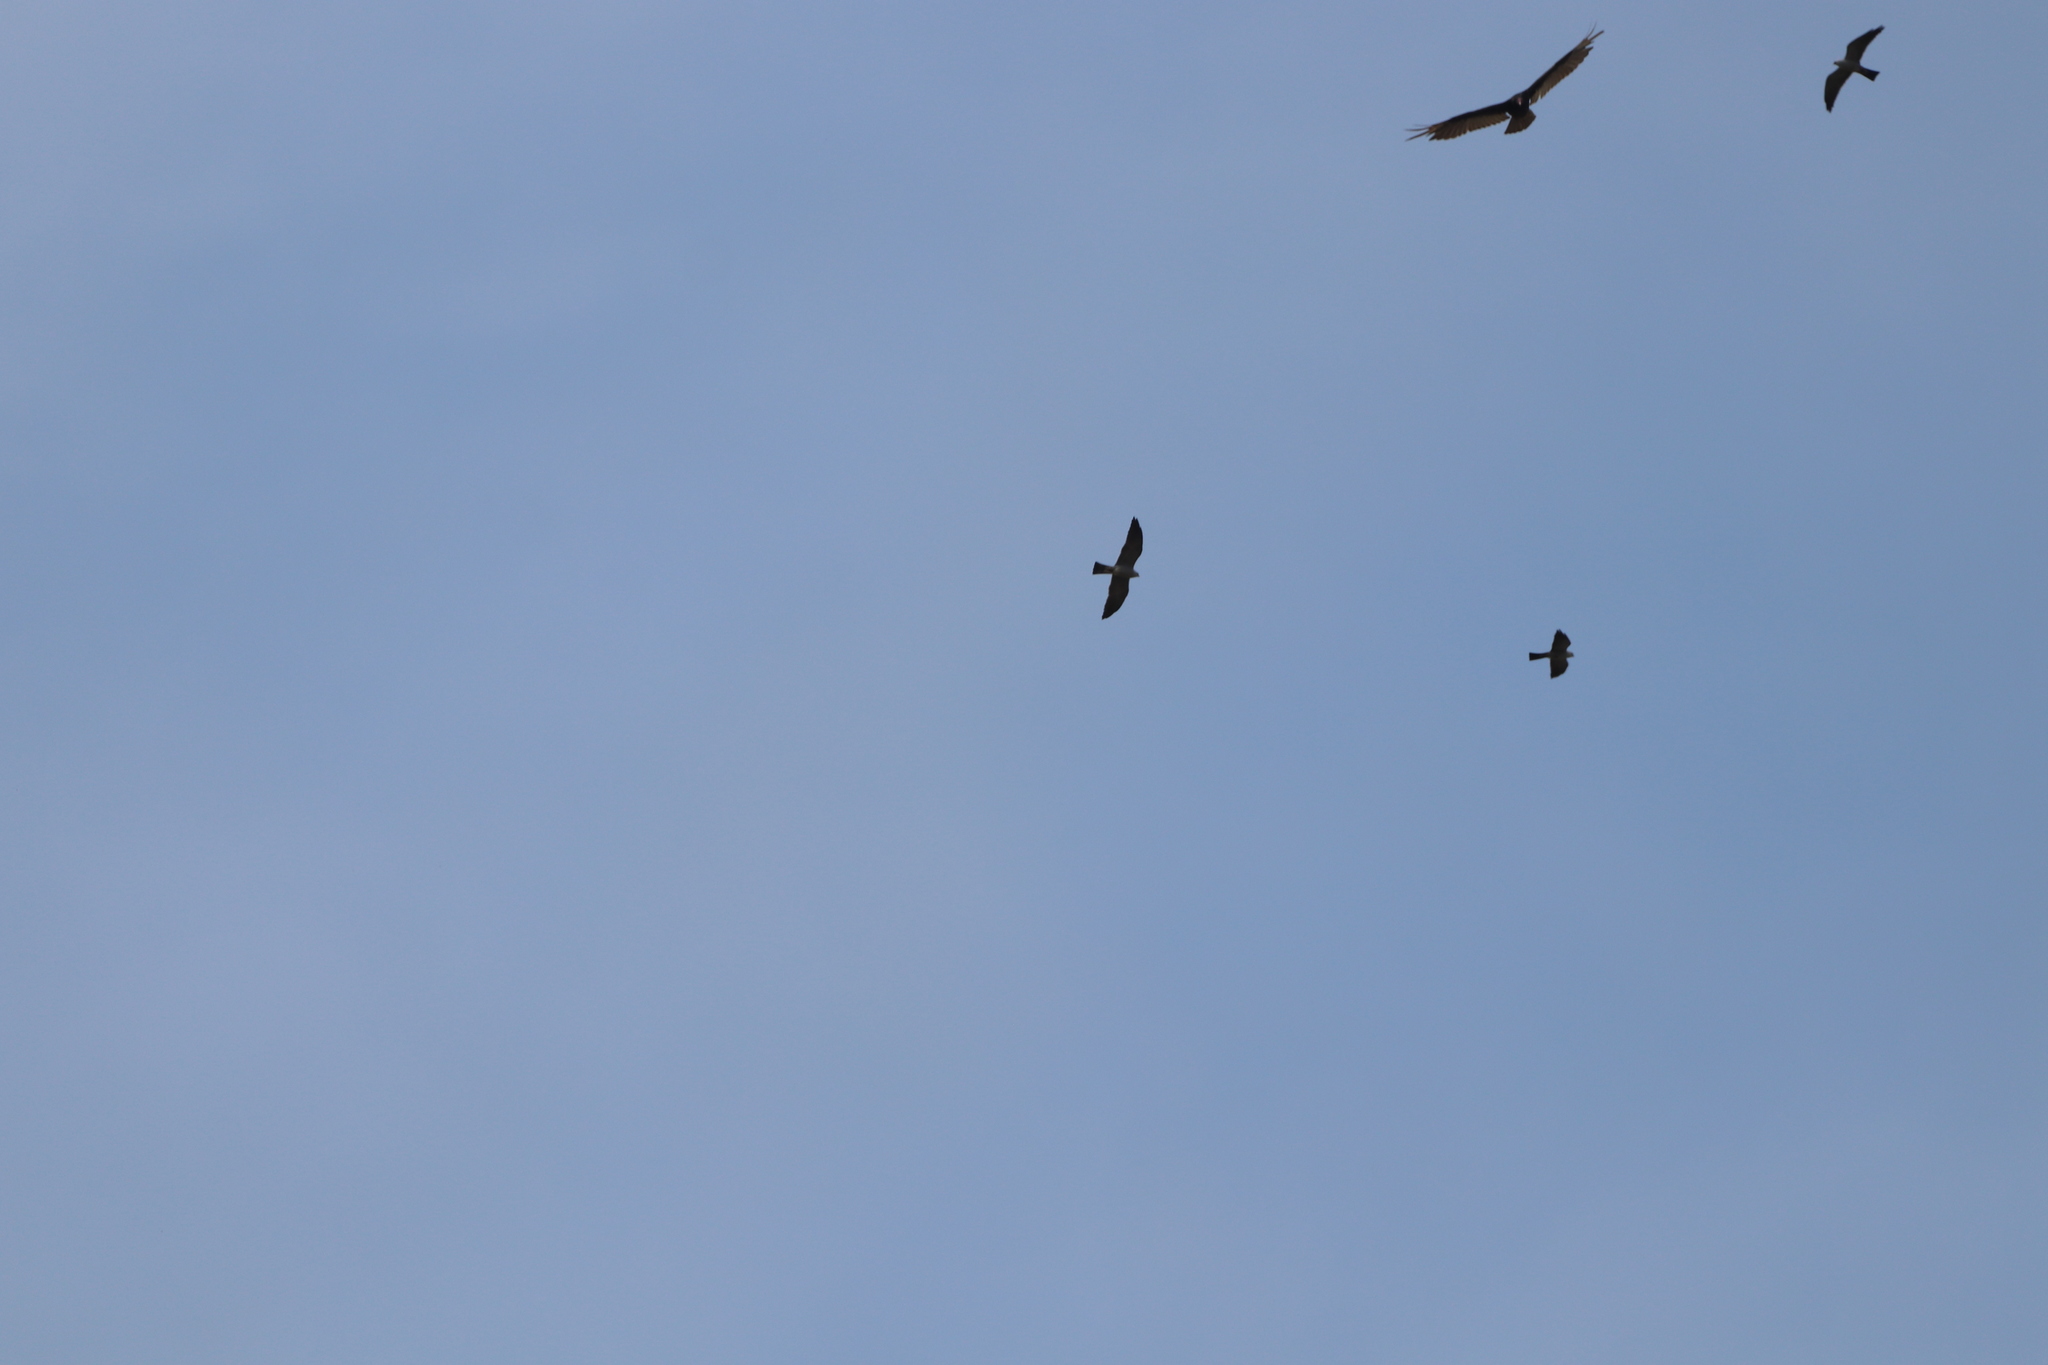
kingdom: Animalia
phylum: Chordata
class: Aves
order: Accipitriformes
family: Accipitridae
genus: Ictinia
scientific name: Ictinia mississippiensis
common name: Mississippi kite
